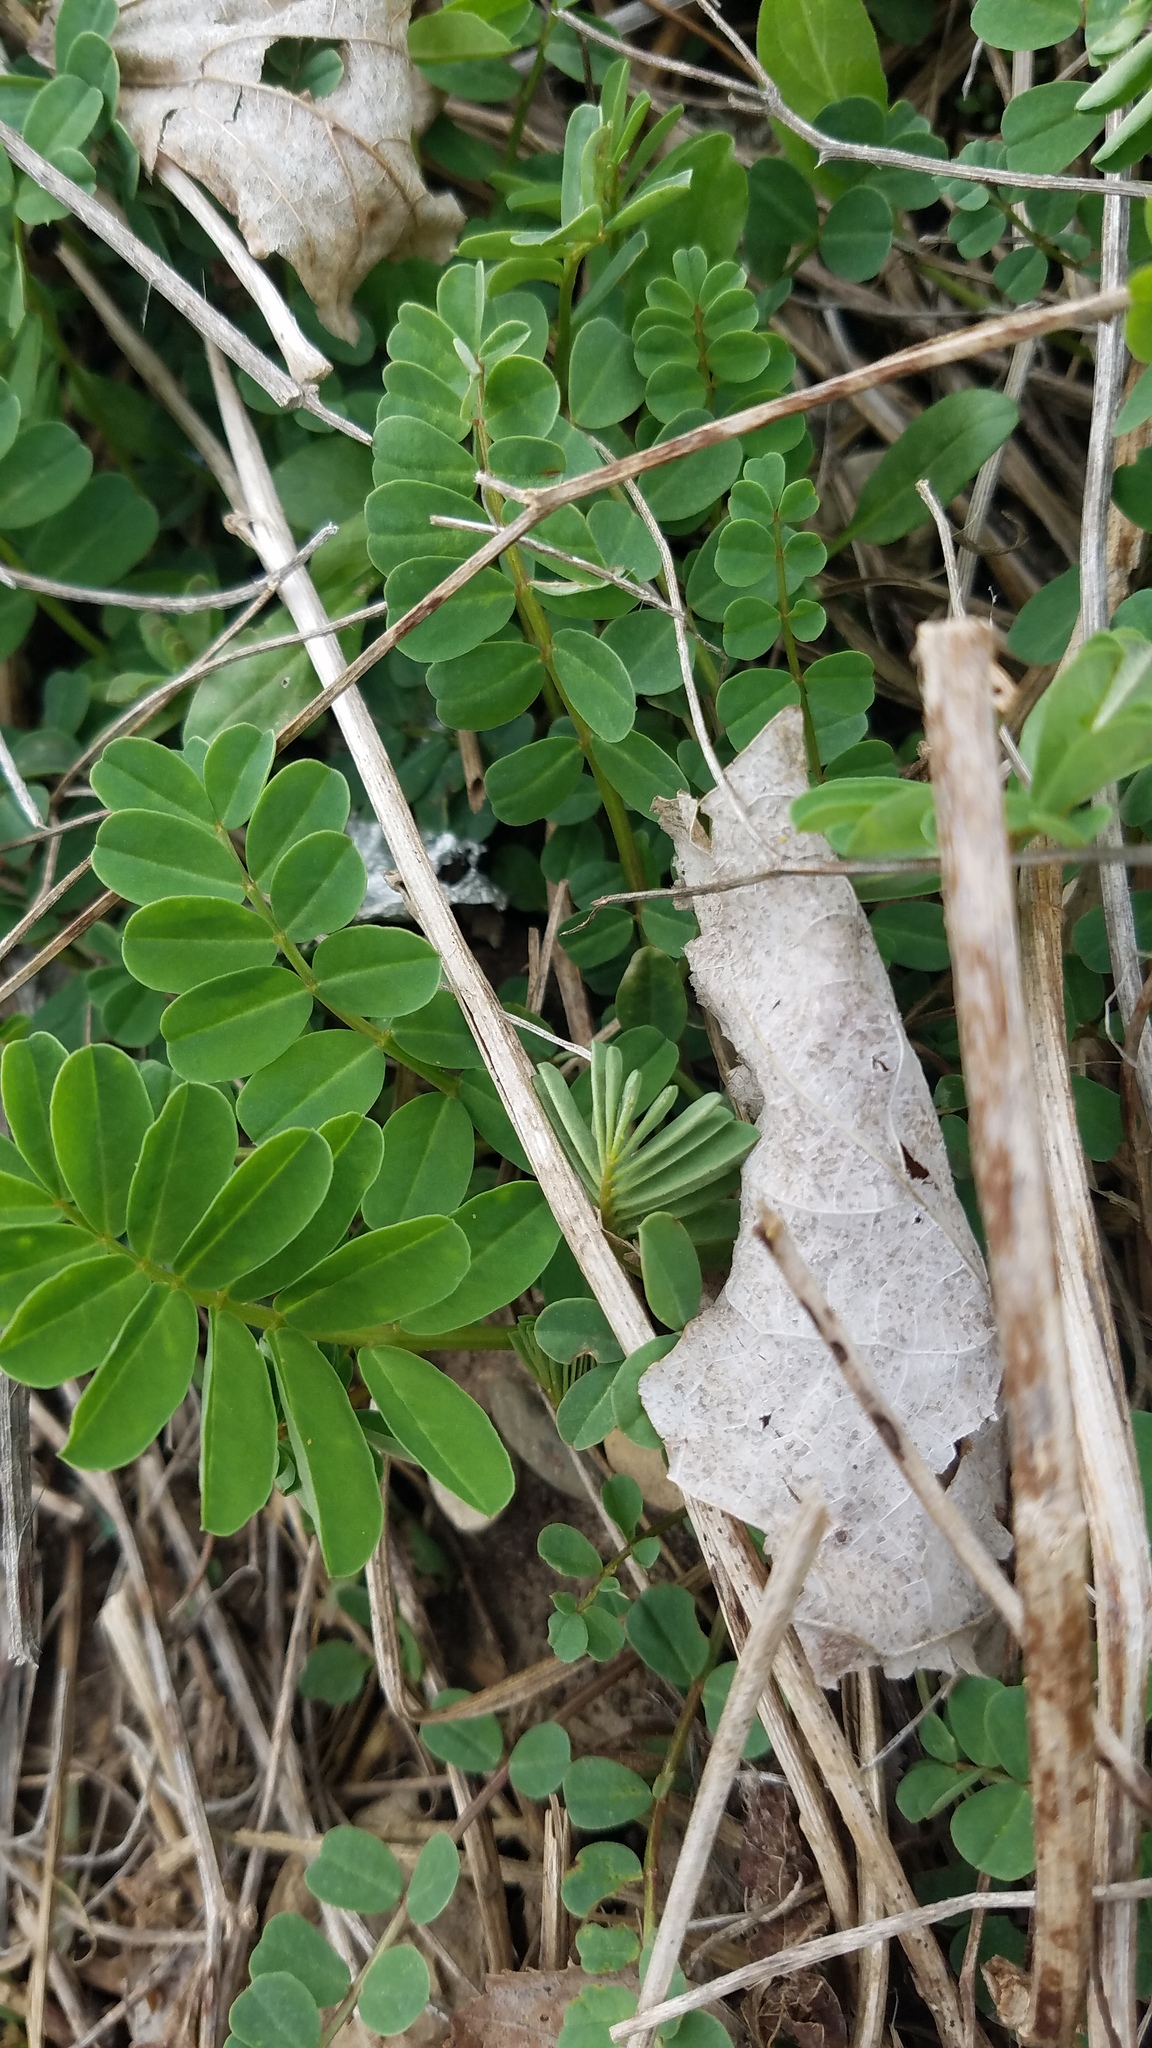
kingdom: Plantae
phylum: Tracheophyta
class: Magnoliopsida
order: Fabales
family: Fabaceae
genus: Coronilla
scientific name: Coronilla varia
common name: Crownvetch
